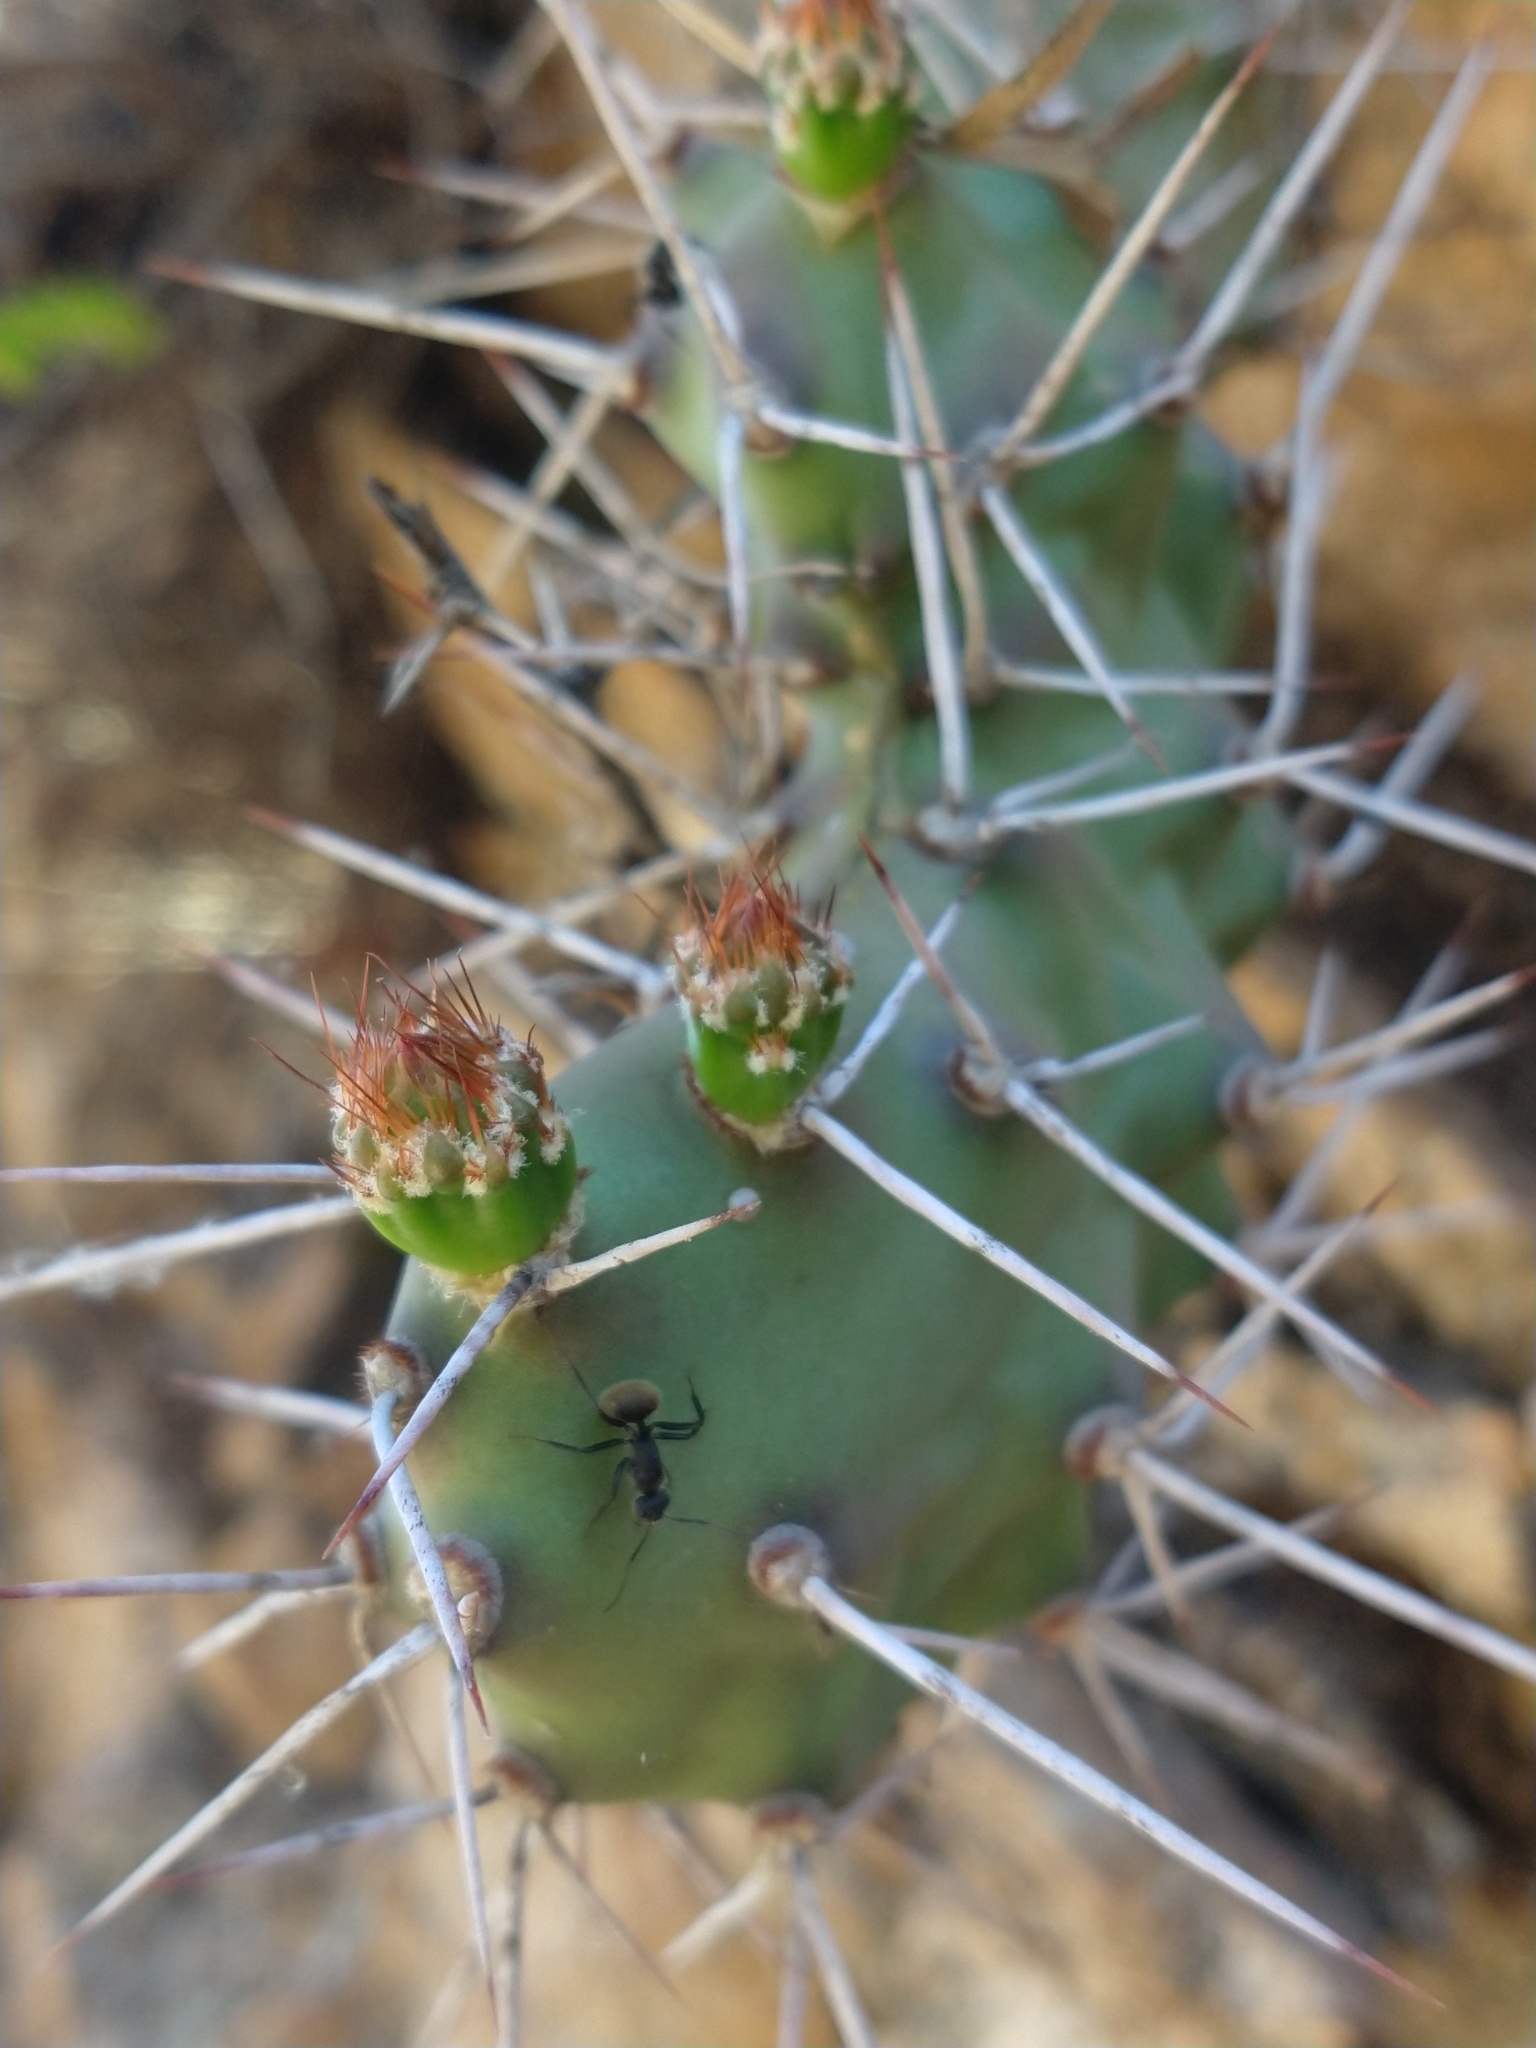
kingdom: Plantae
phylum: Tracheophyta
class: Magnoliopsida
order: Caryophyllales
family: Cactaceae
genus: Opuntia
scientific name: Opuntia sulphurea
